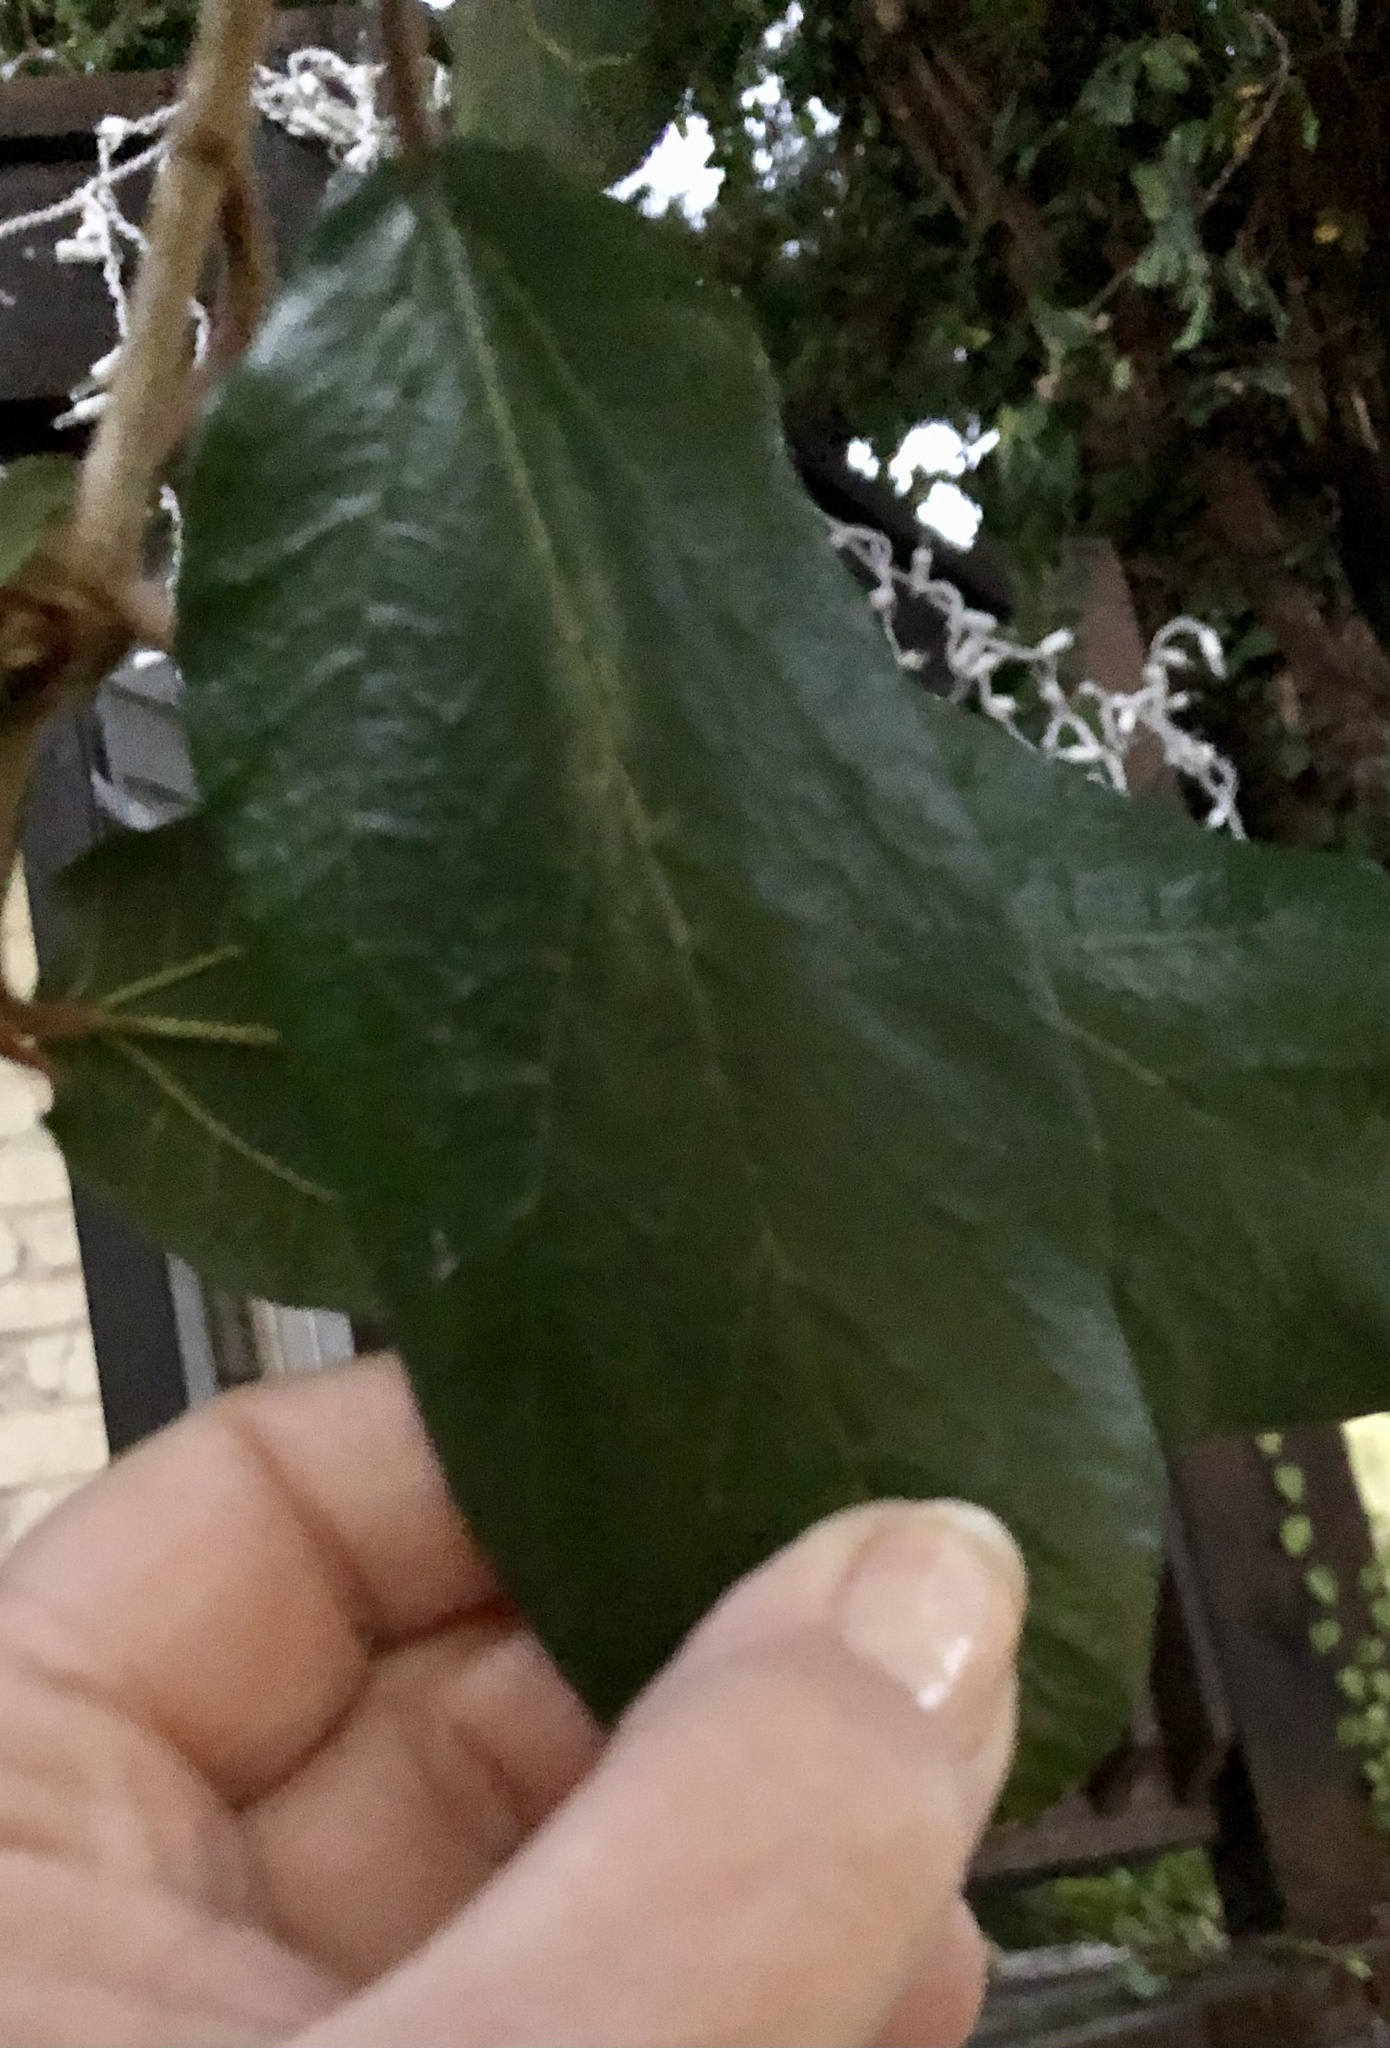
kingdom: Plantae
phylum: Tracheophyta
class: Magnoliopsida
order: Rosales
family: Moraceae
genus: Ficus
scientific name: Ficus pumila
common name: Climbingfig
